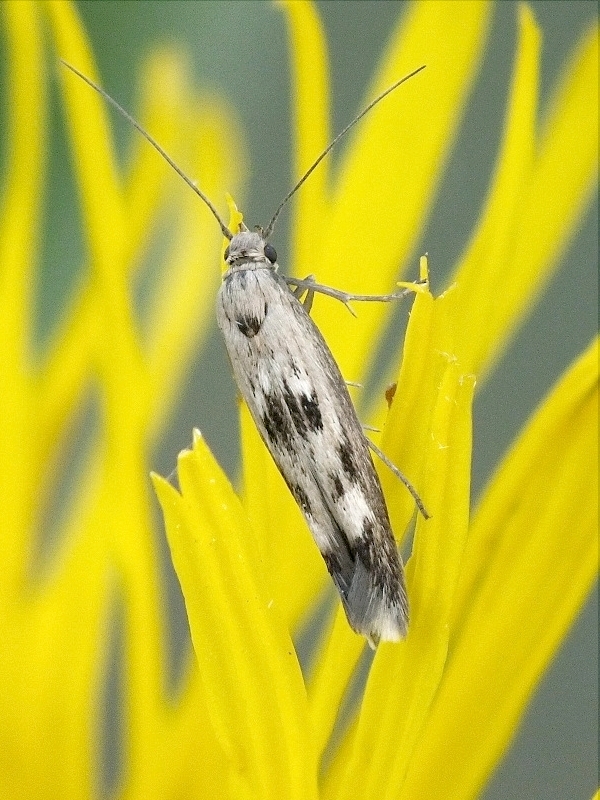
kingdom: Animalia
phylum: Arthropoda
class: Insecta
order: Lepidoptera
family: Scythrididae
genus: Scythris
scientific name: Scythris limbella
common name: Goosefoot owlet
